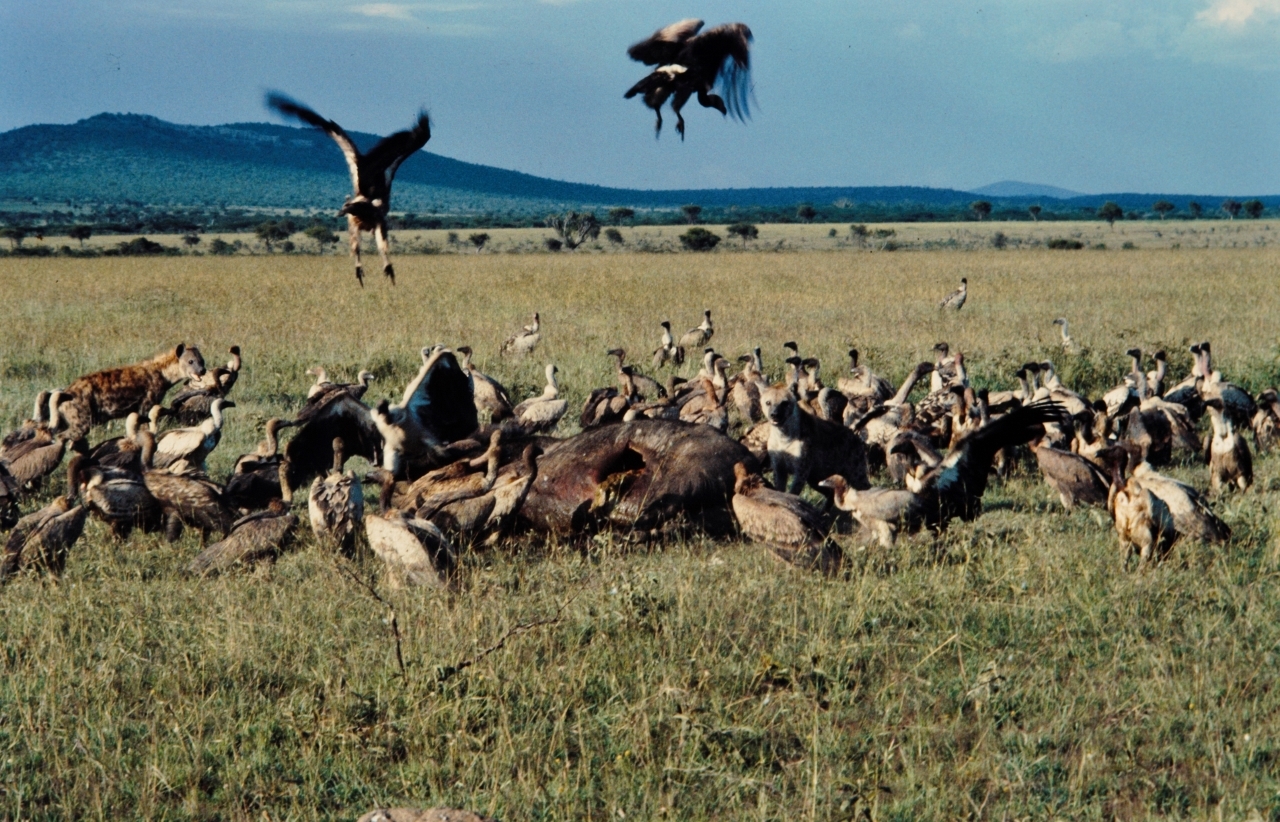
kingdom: Animalia
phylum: Chordata
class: Aves
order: Accipitriformes
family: Accipitridae
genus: Gyps
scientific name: Gyps africanus
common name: White-backed vulture
